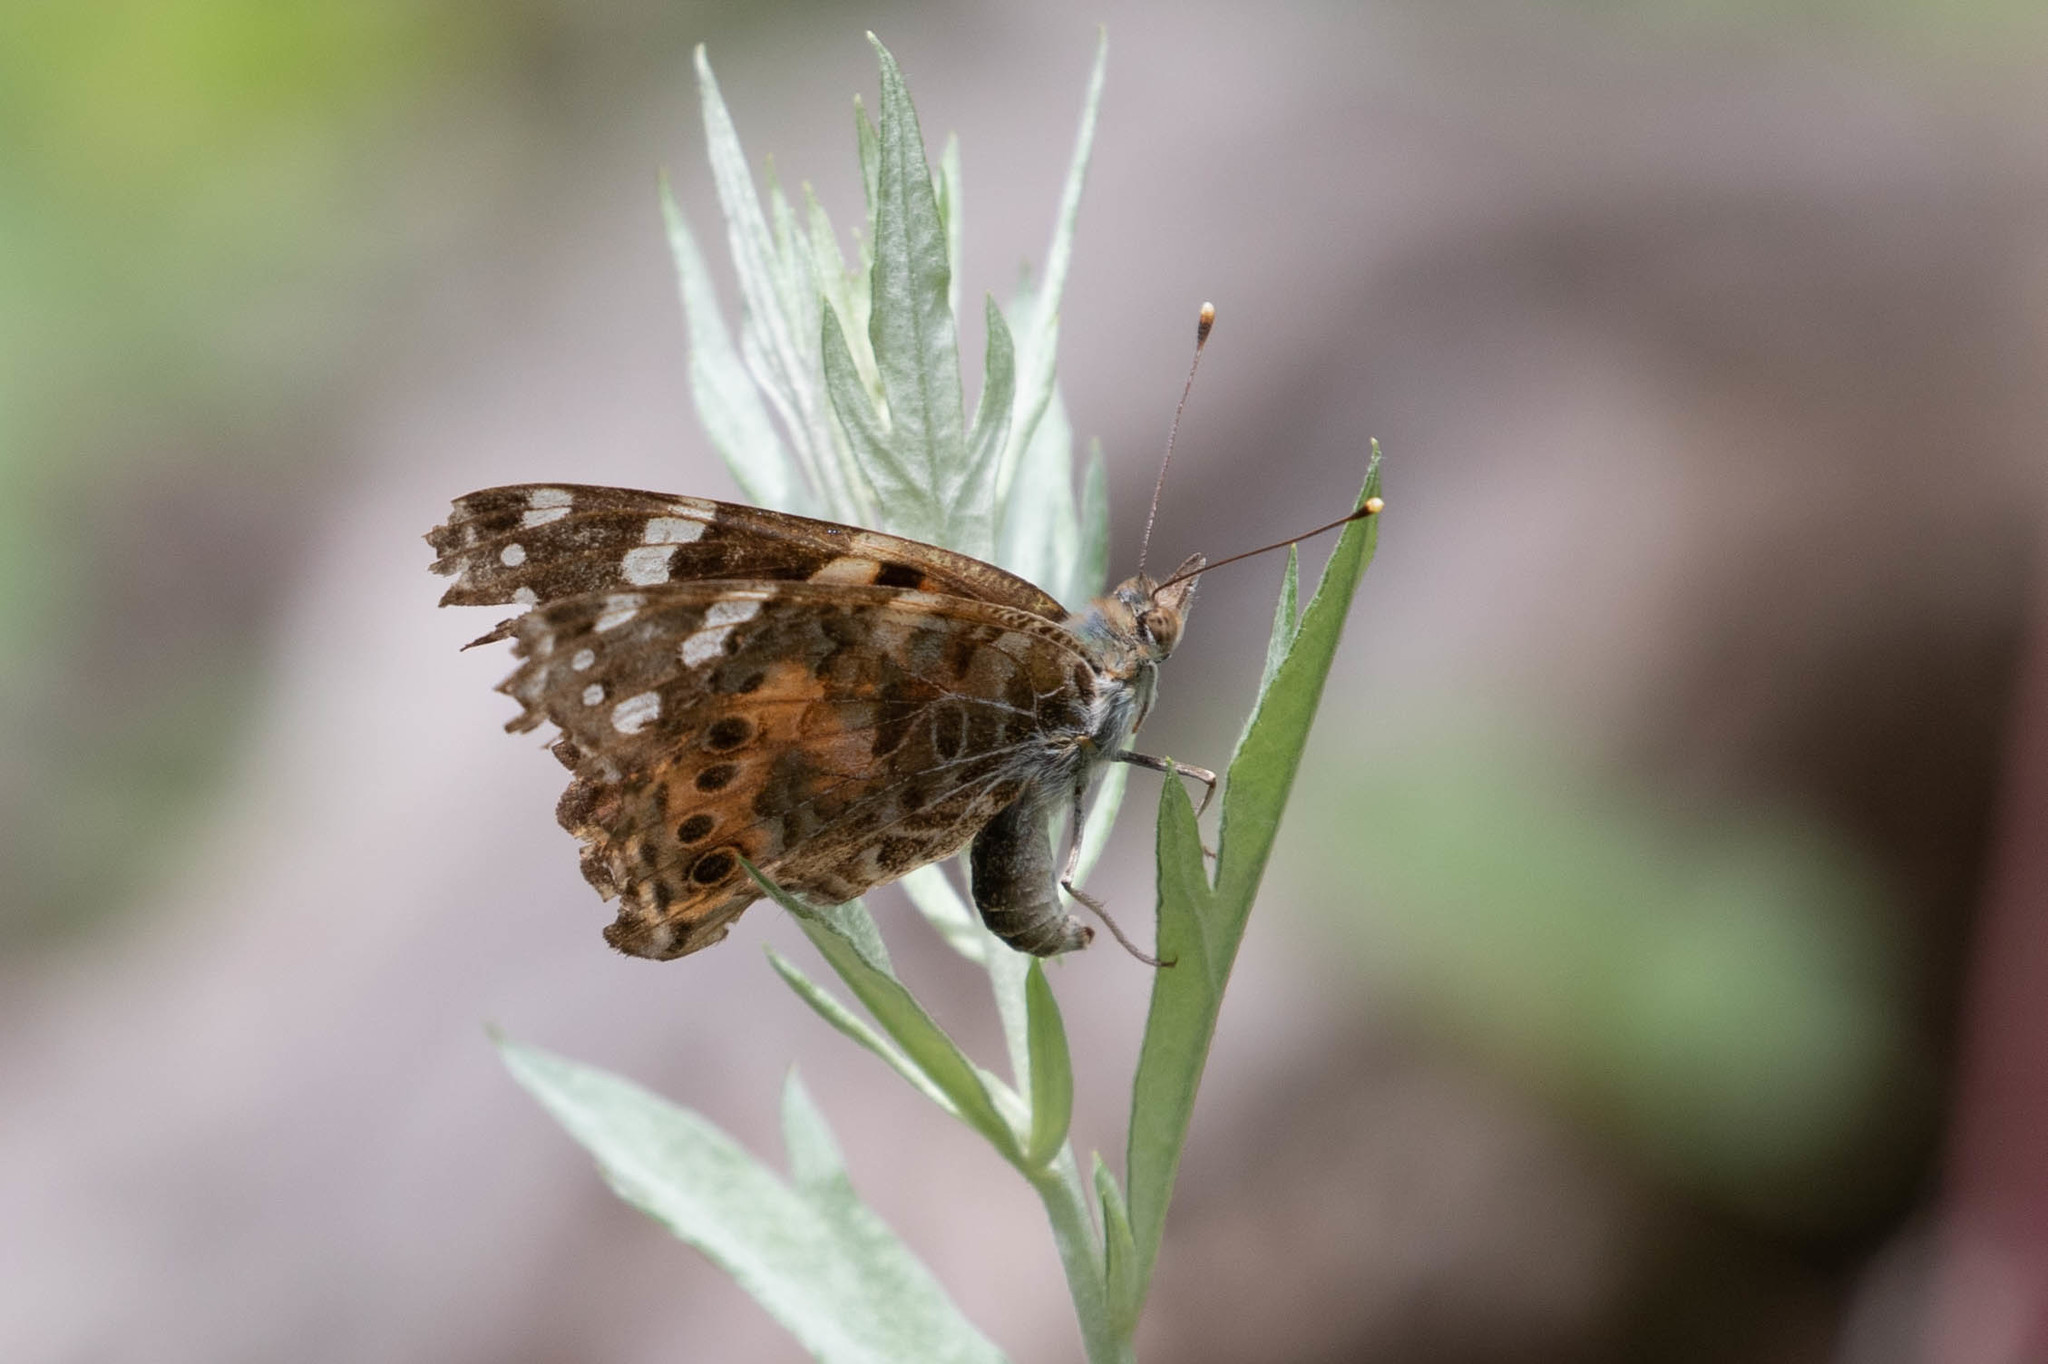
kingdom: Animalia
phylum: Arthropoda
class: Insecta
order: Lepidoptera
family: Nymphalidae
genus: Vanessa
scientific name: Vanessa cardui
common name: Painted lady
